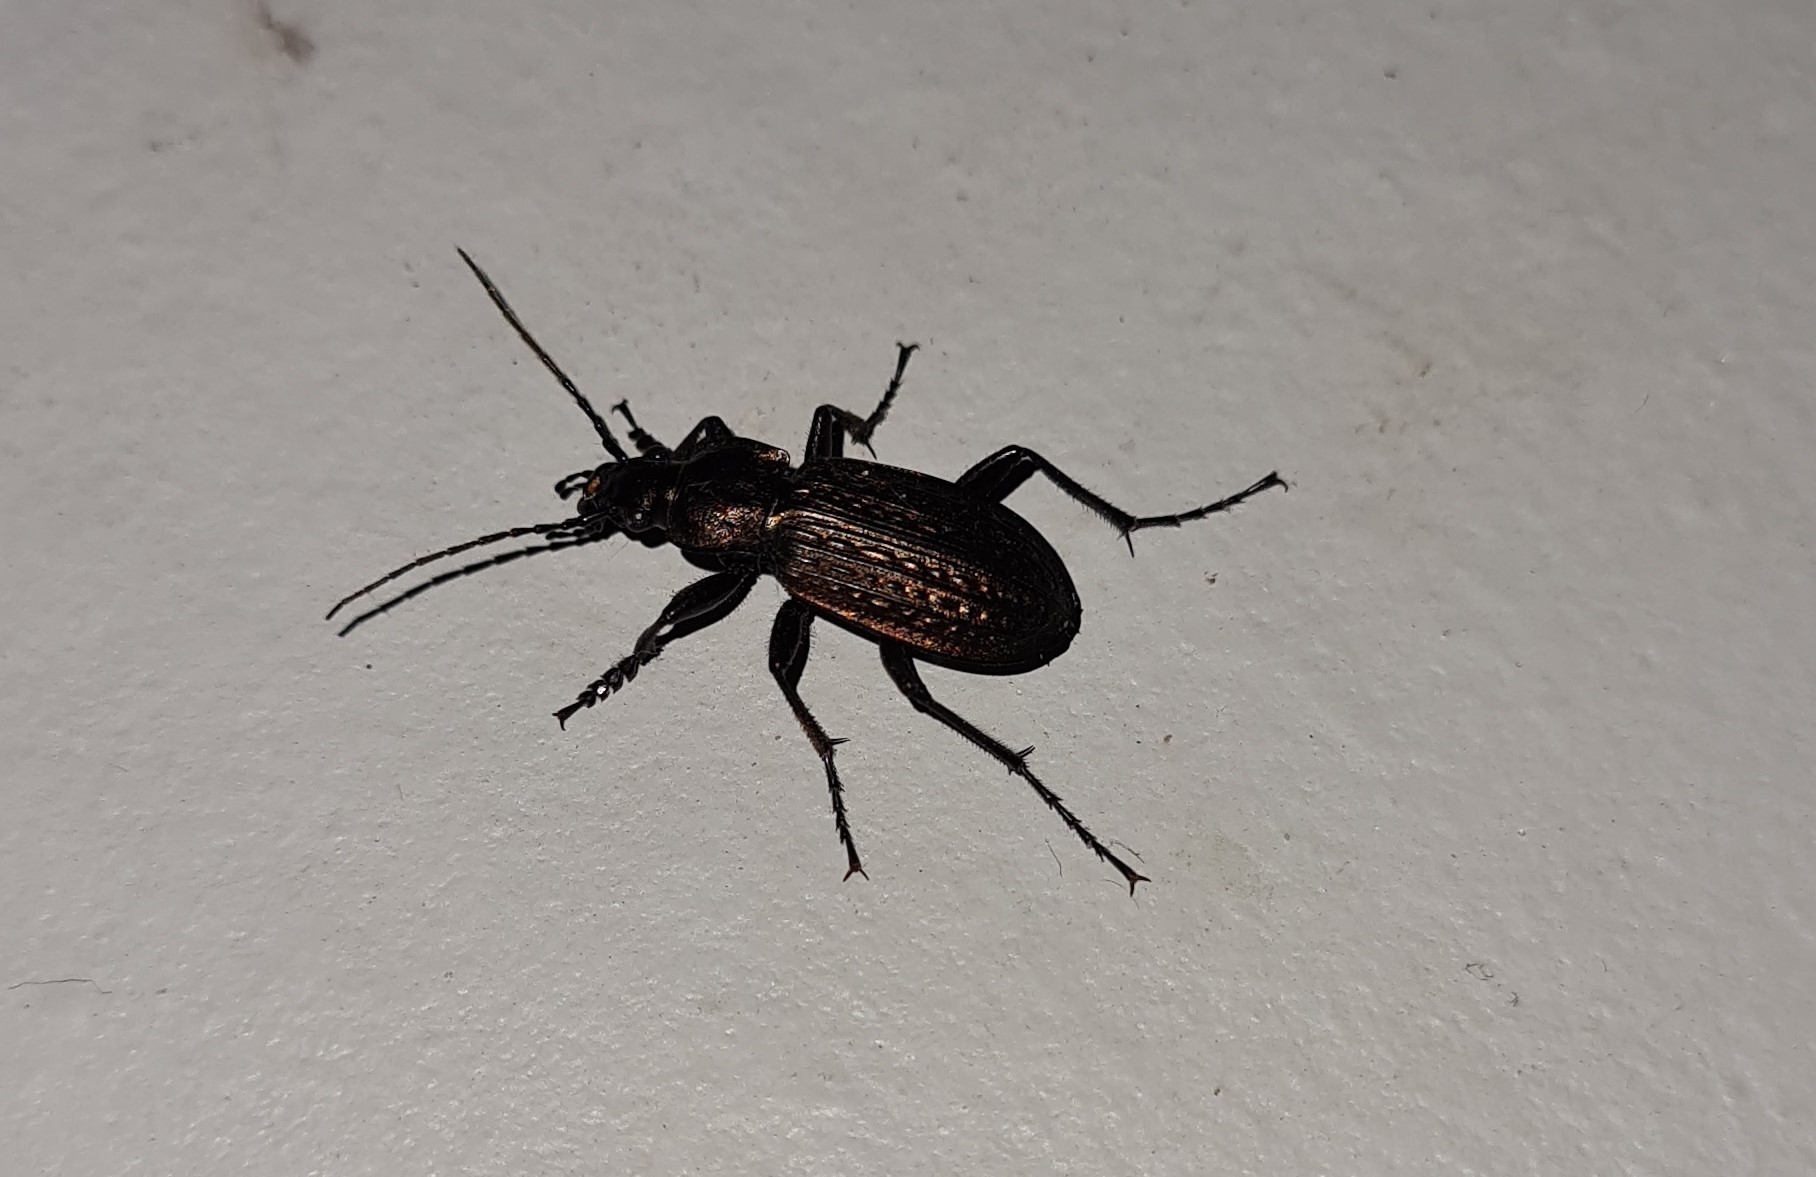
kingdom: Animalia
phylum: Arthropoda
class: Insecta
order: Coleoptera
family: Carabidae
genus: Carabus
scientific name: Carabus granulatus
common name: Granulate ground beetle
